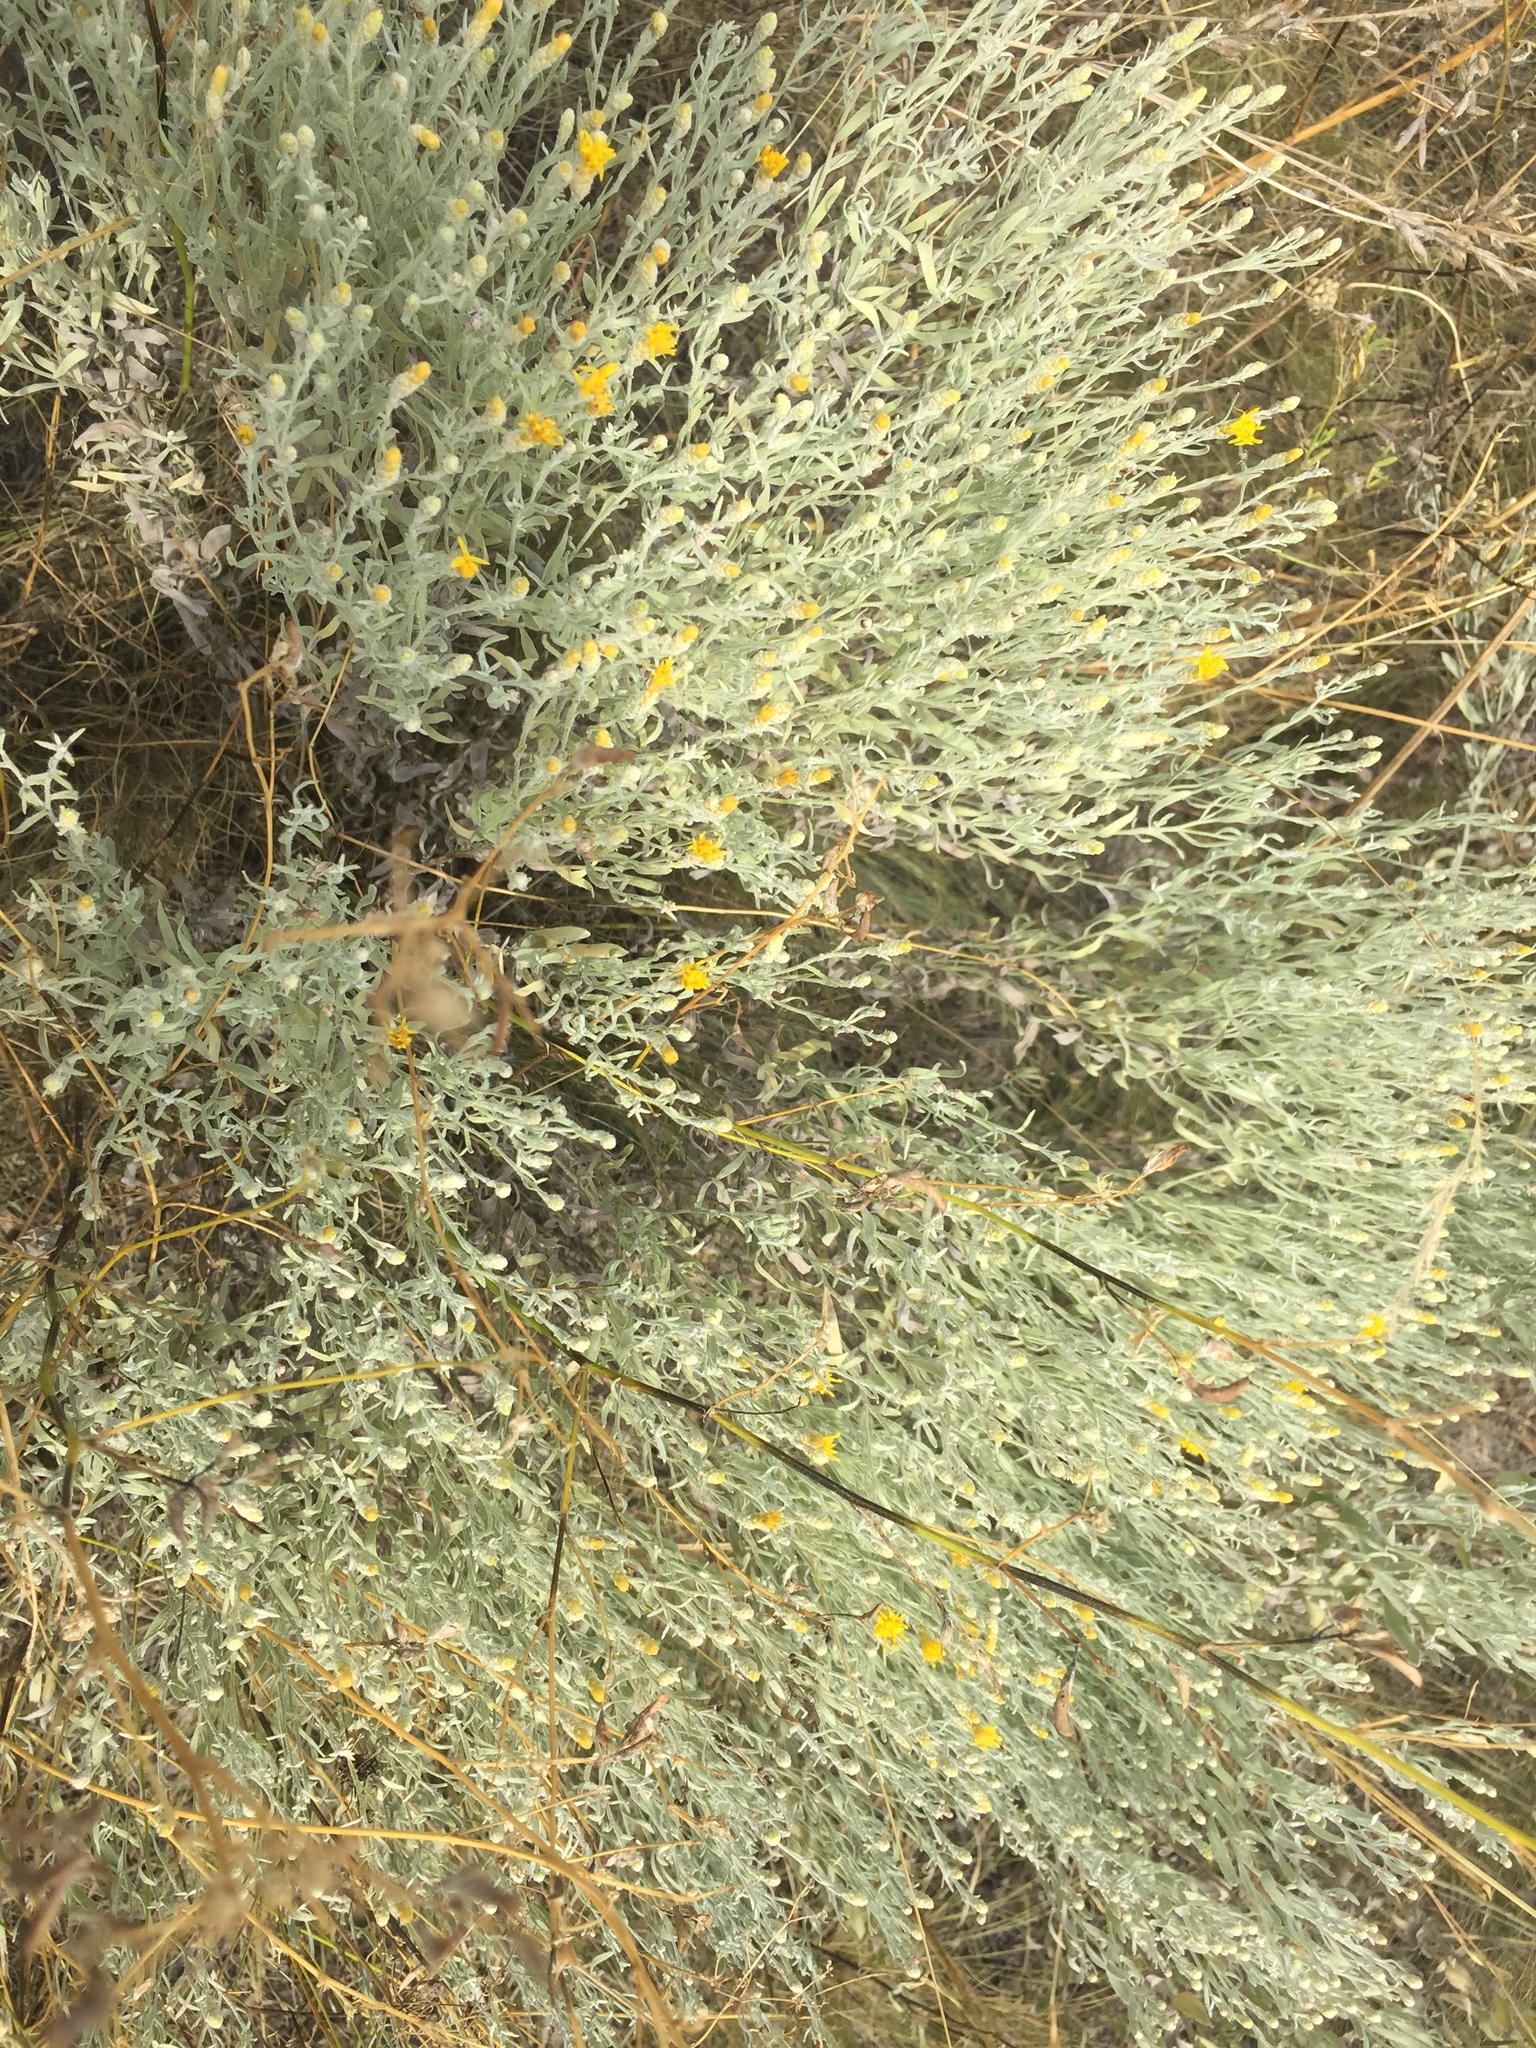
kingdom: Plantae
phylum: Tracheophyta
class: Magnoliopsida
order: Asterales
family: Asteraceae
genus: Galatella
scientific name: Galatella villosa
